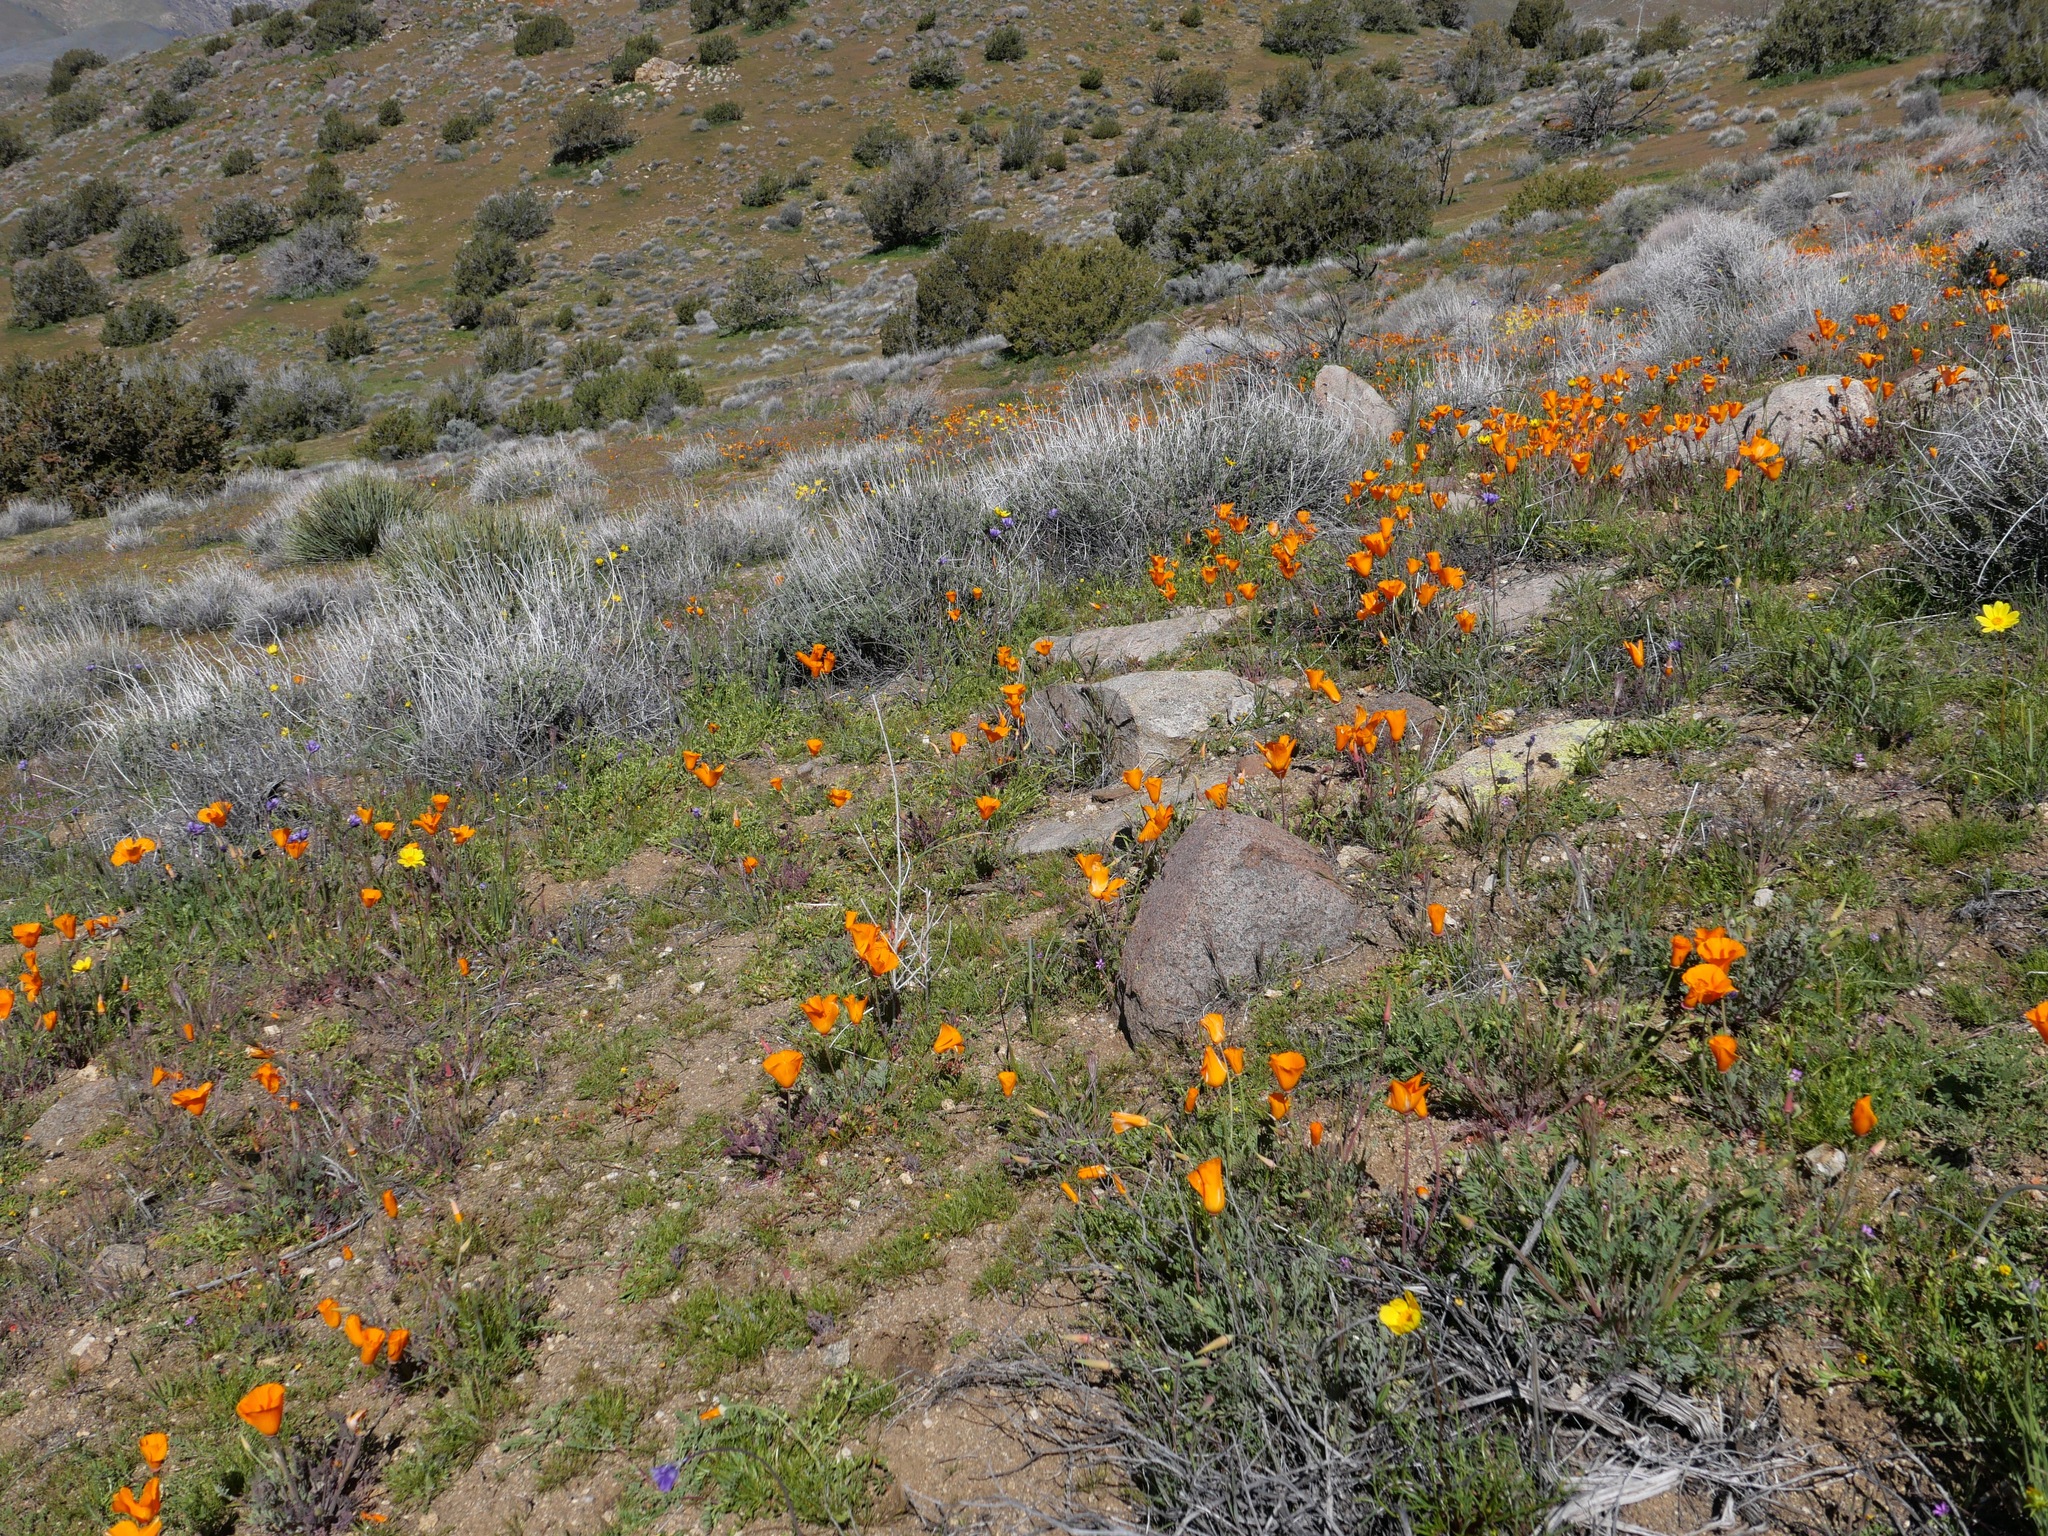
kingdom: Plantae
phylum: Tracheophyta
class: Magnoliopsida
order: Ranunculales
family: Papaveraceae
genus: Eschscholzia
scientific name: Eschscholzia californica
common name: California poppy
